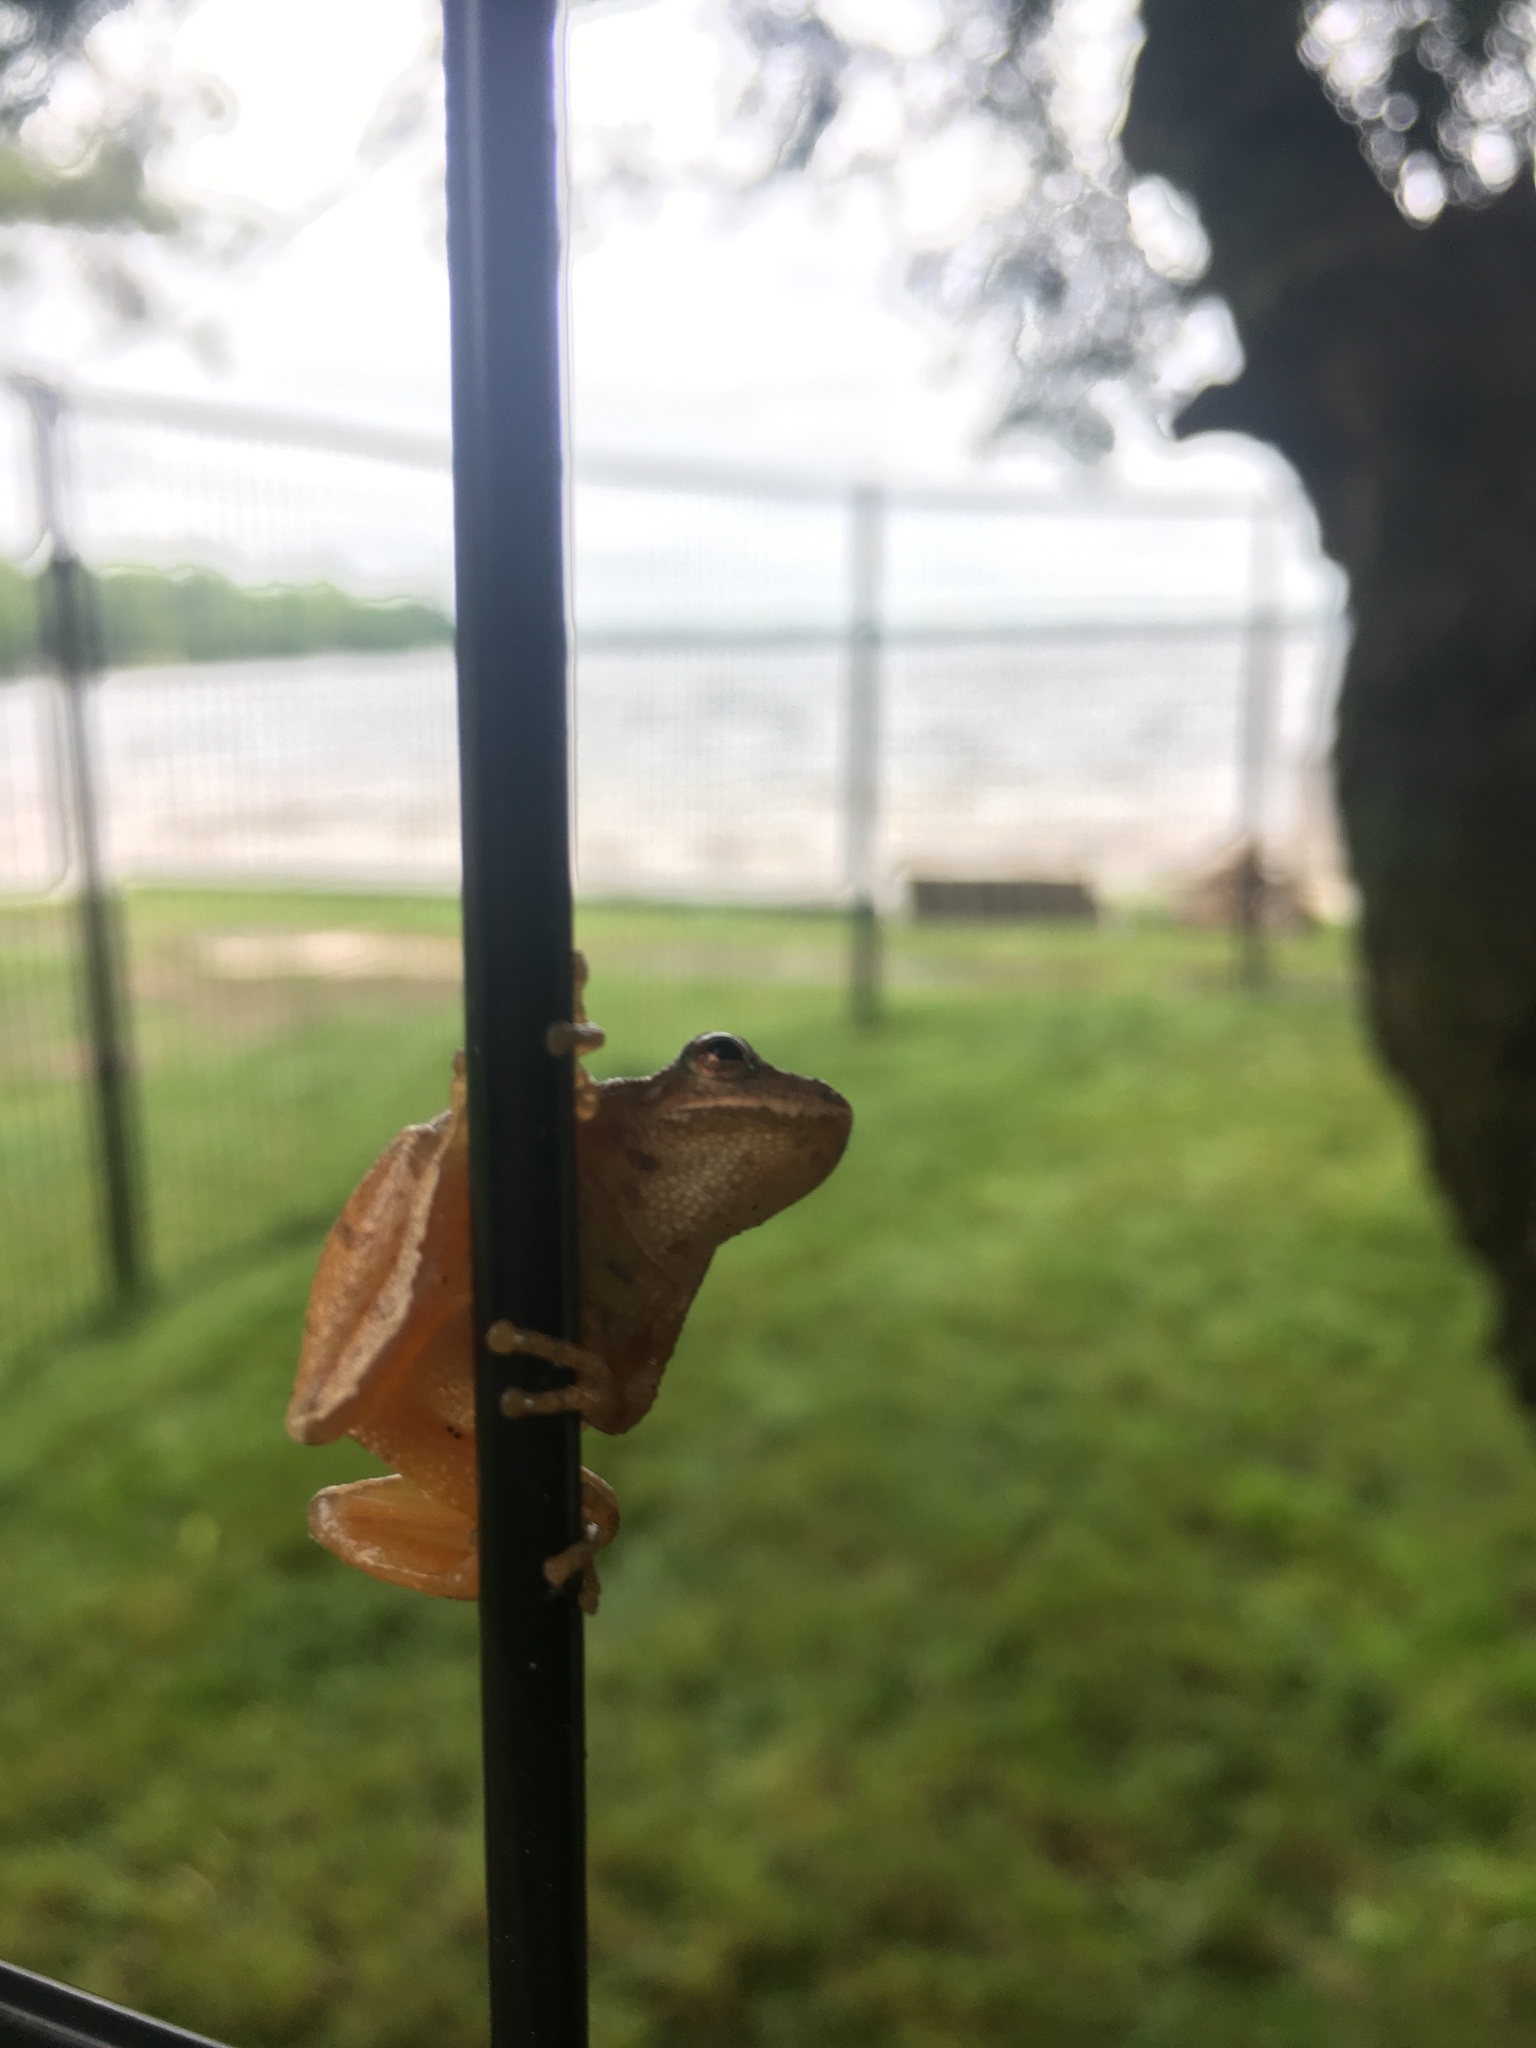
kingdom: Animalia
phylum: Chordata
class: Amphibia
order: Anura
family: Hylidae
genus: Pseudacris
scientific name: Pseudacris crucifer
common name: Spring peeper
